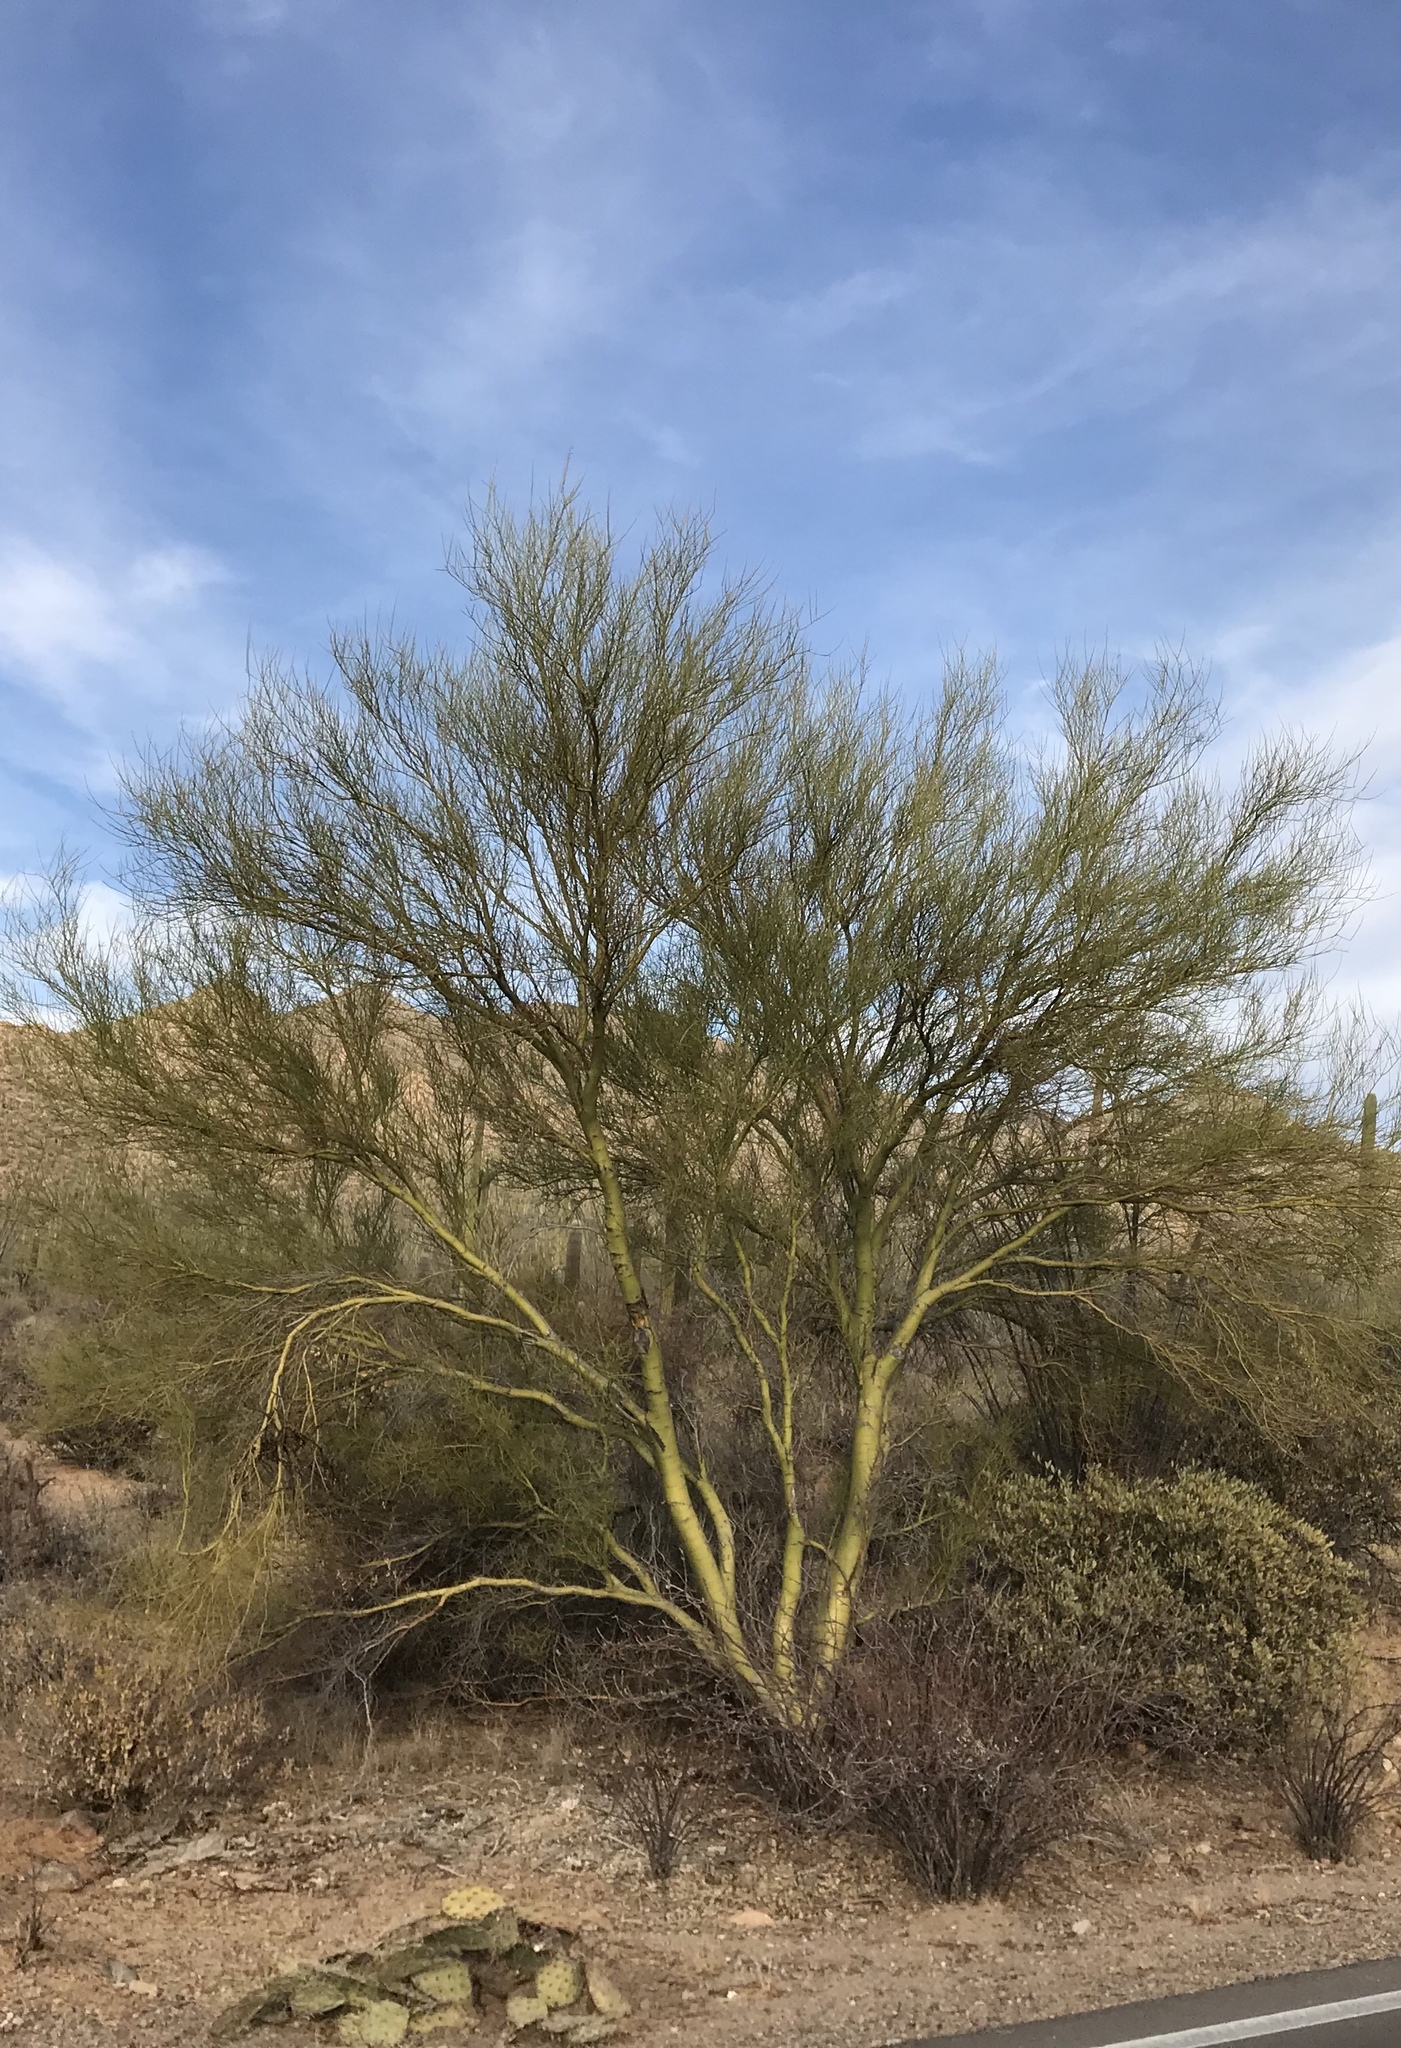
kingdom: Plantae
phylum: Tracheophyta
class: Magnoliopsida
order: Fabales
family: Fabaceae
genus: Parkinsonia
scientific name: Parkinsonia microphylla
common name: Yellow paloverde
